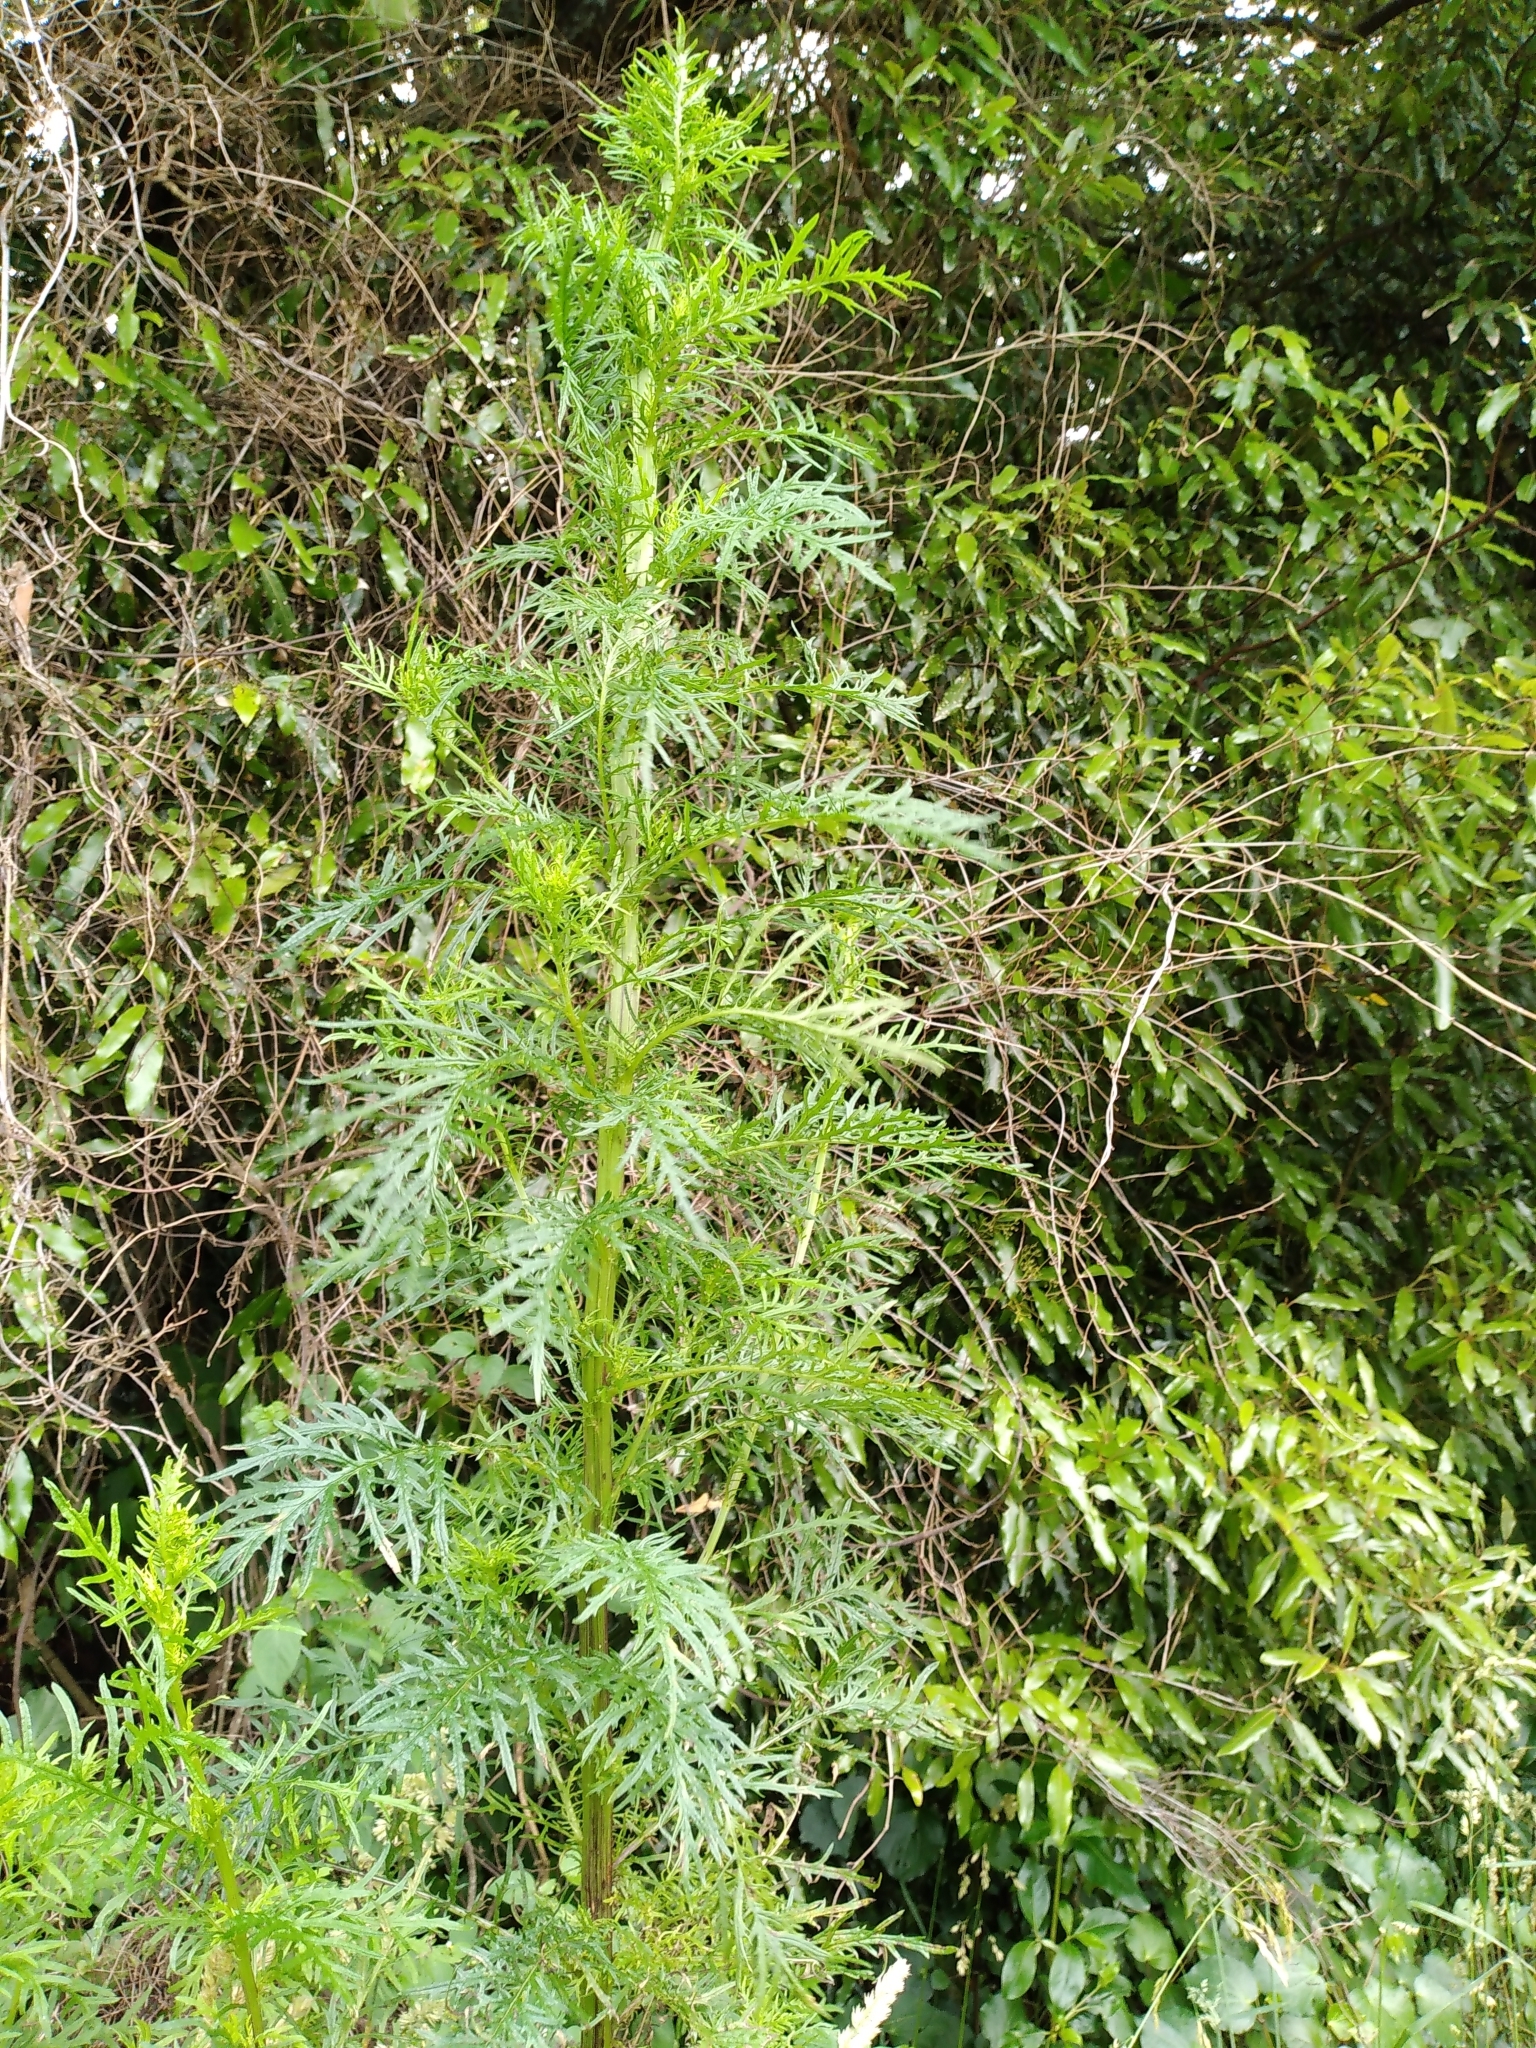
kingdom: Plantae
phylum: Tracheophyta
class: Magnoliopsida
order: Asterales
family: Asteraceae
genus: Senecio
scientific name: Senecio bipinnatisectus
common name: Australian fireweed
